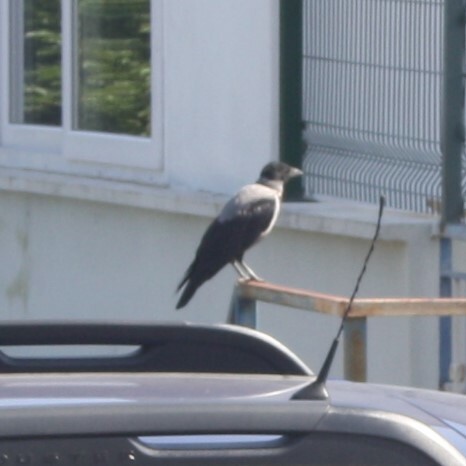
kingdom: Animalia
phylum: Chordata
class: Aves
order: Passeriformes
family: Corvidae
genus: Corvus
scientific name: Corvus cornix
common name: Hooded crow
